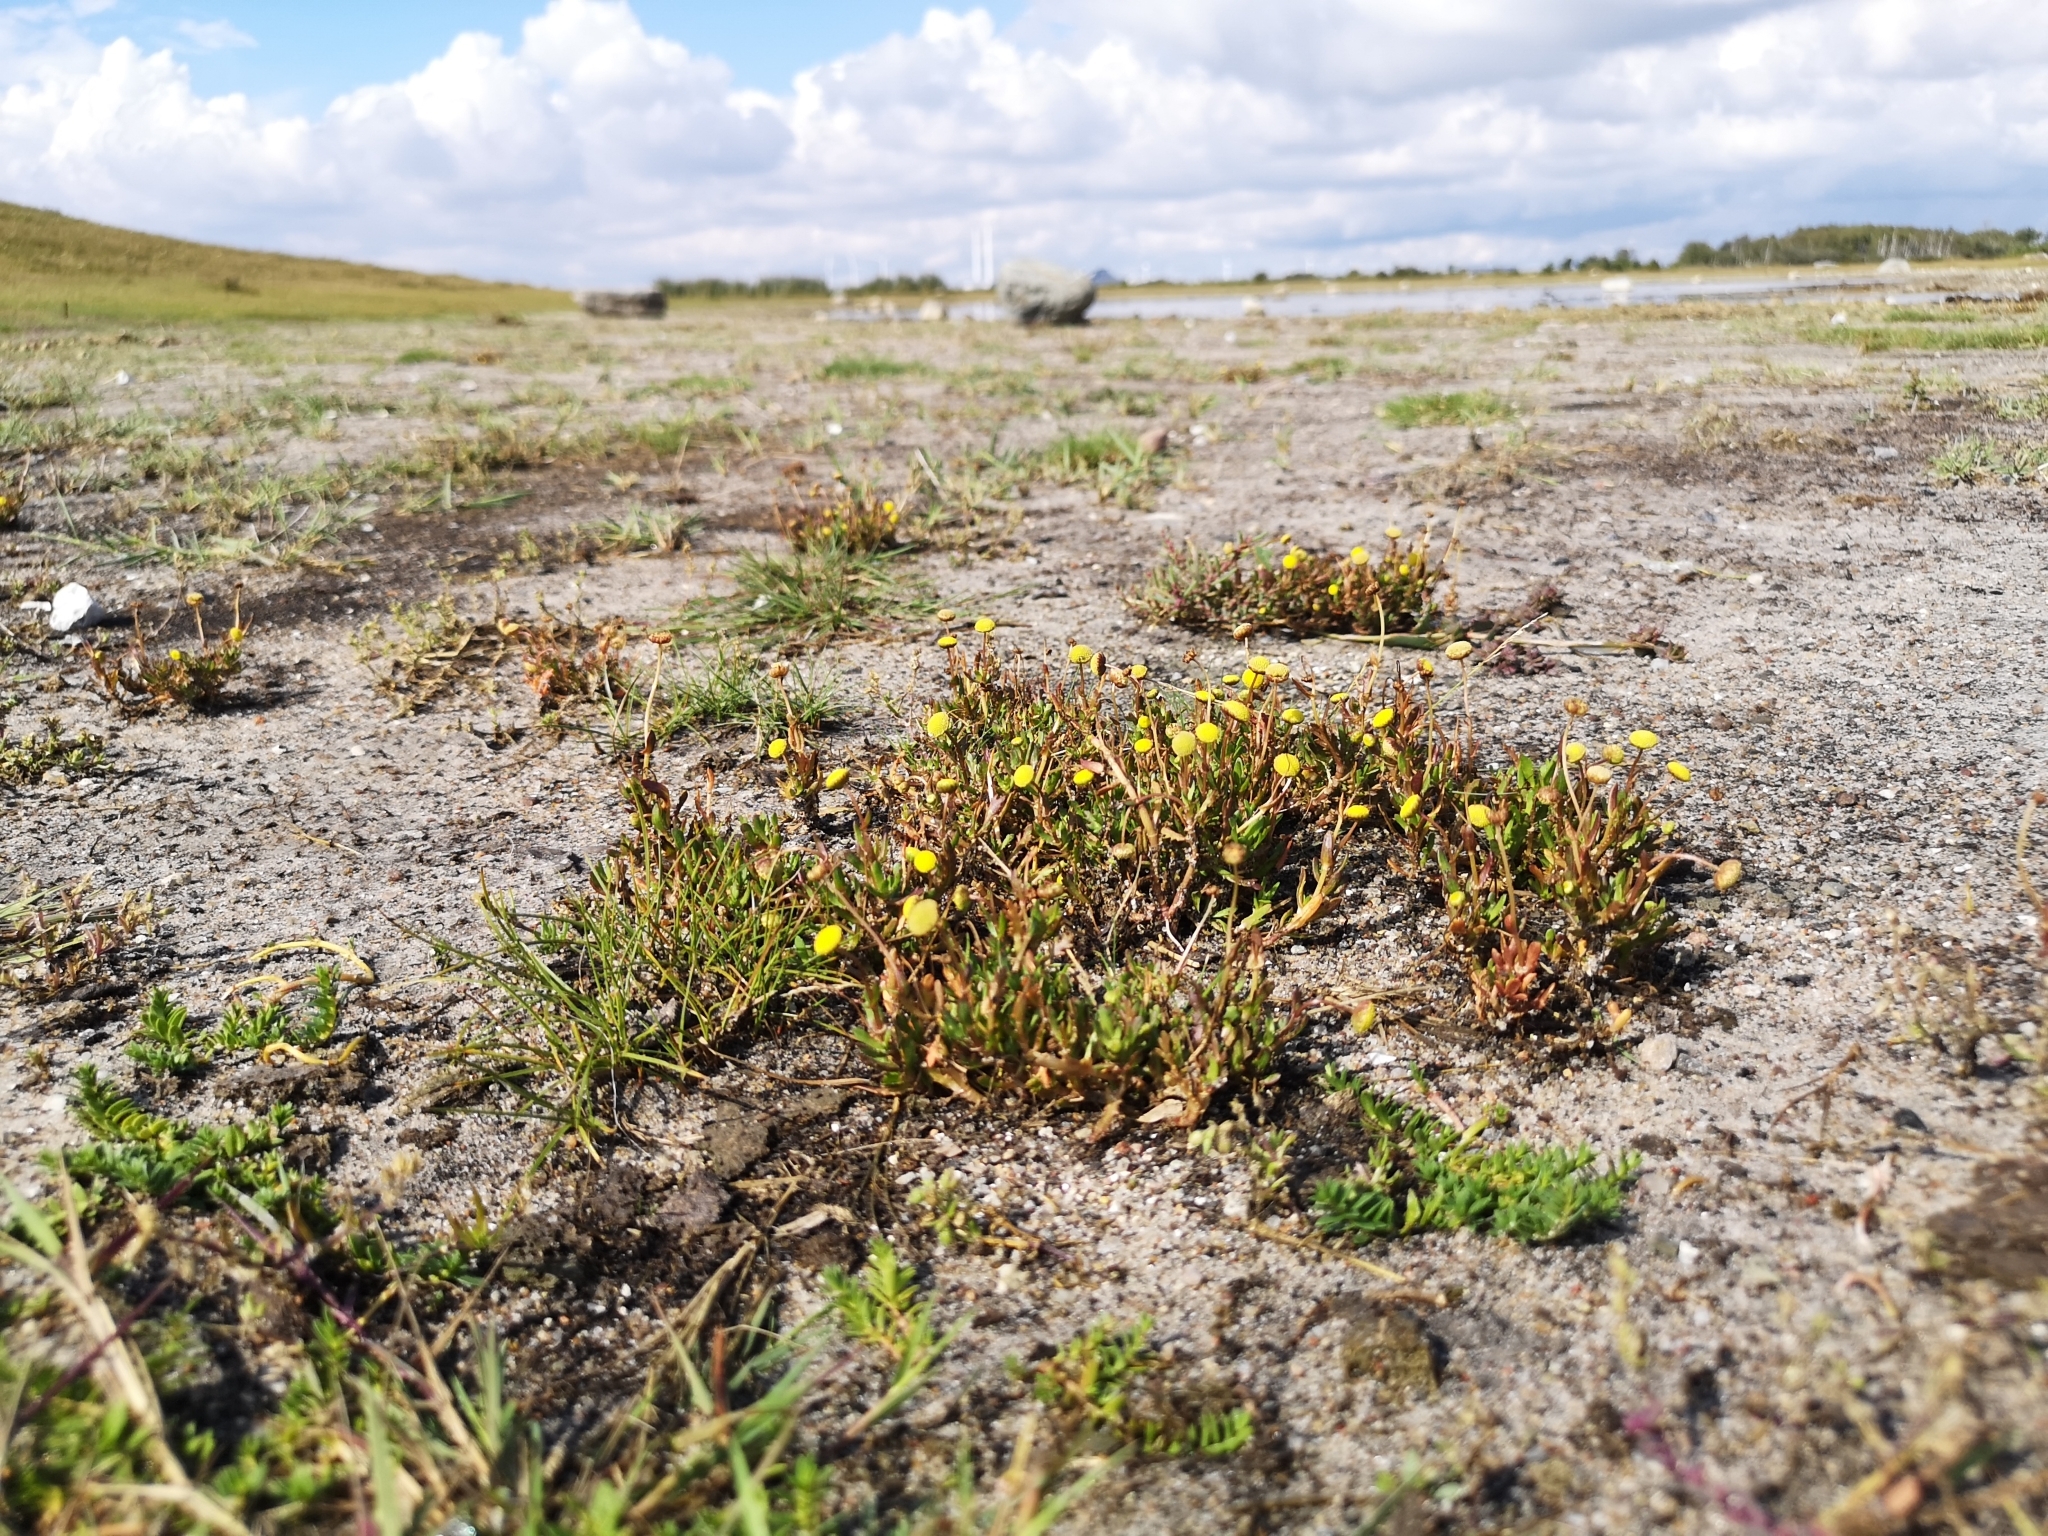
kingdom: Plantae
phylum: Tracheophyta
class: Magnoliopsida
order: Asterales
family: Asteraceae
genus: Cotula
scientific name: Cotula coronopifolia
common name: Buttonweed
